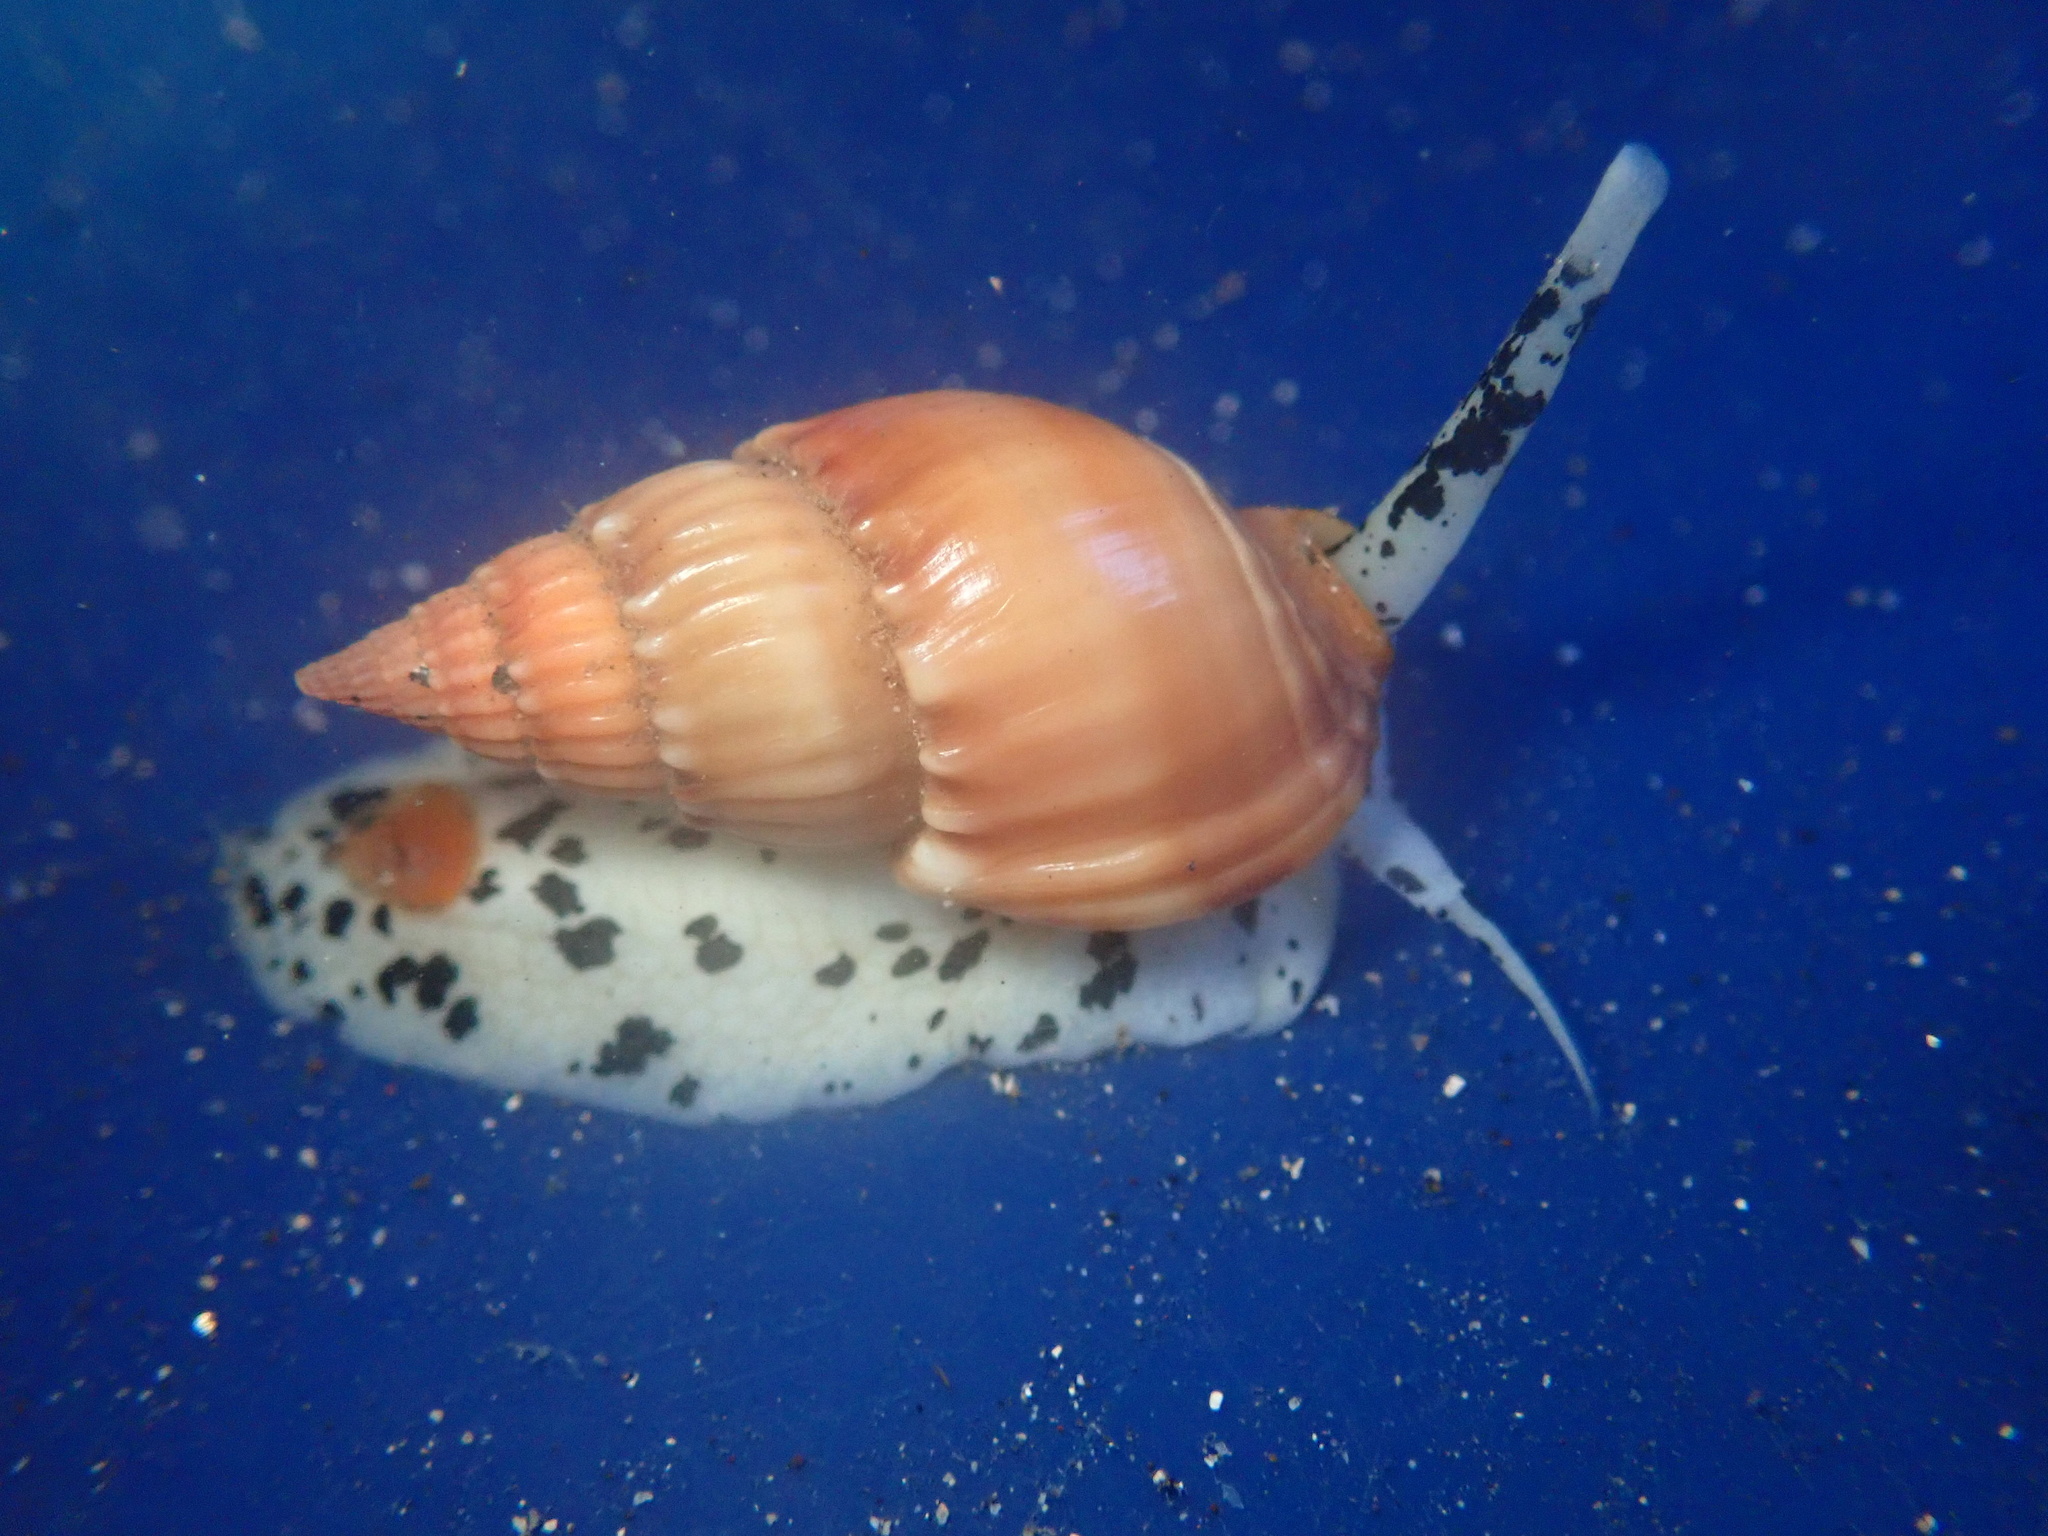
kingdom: Animalia
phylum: Mollusca
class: Gastropoda
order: Neogastropoda
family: Nassariidae
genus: Nassarius
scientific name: Nassarius hirtus
